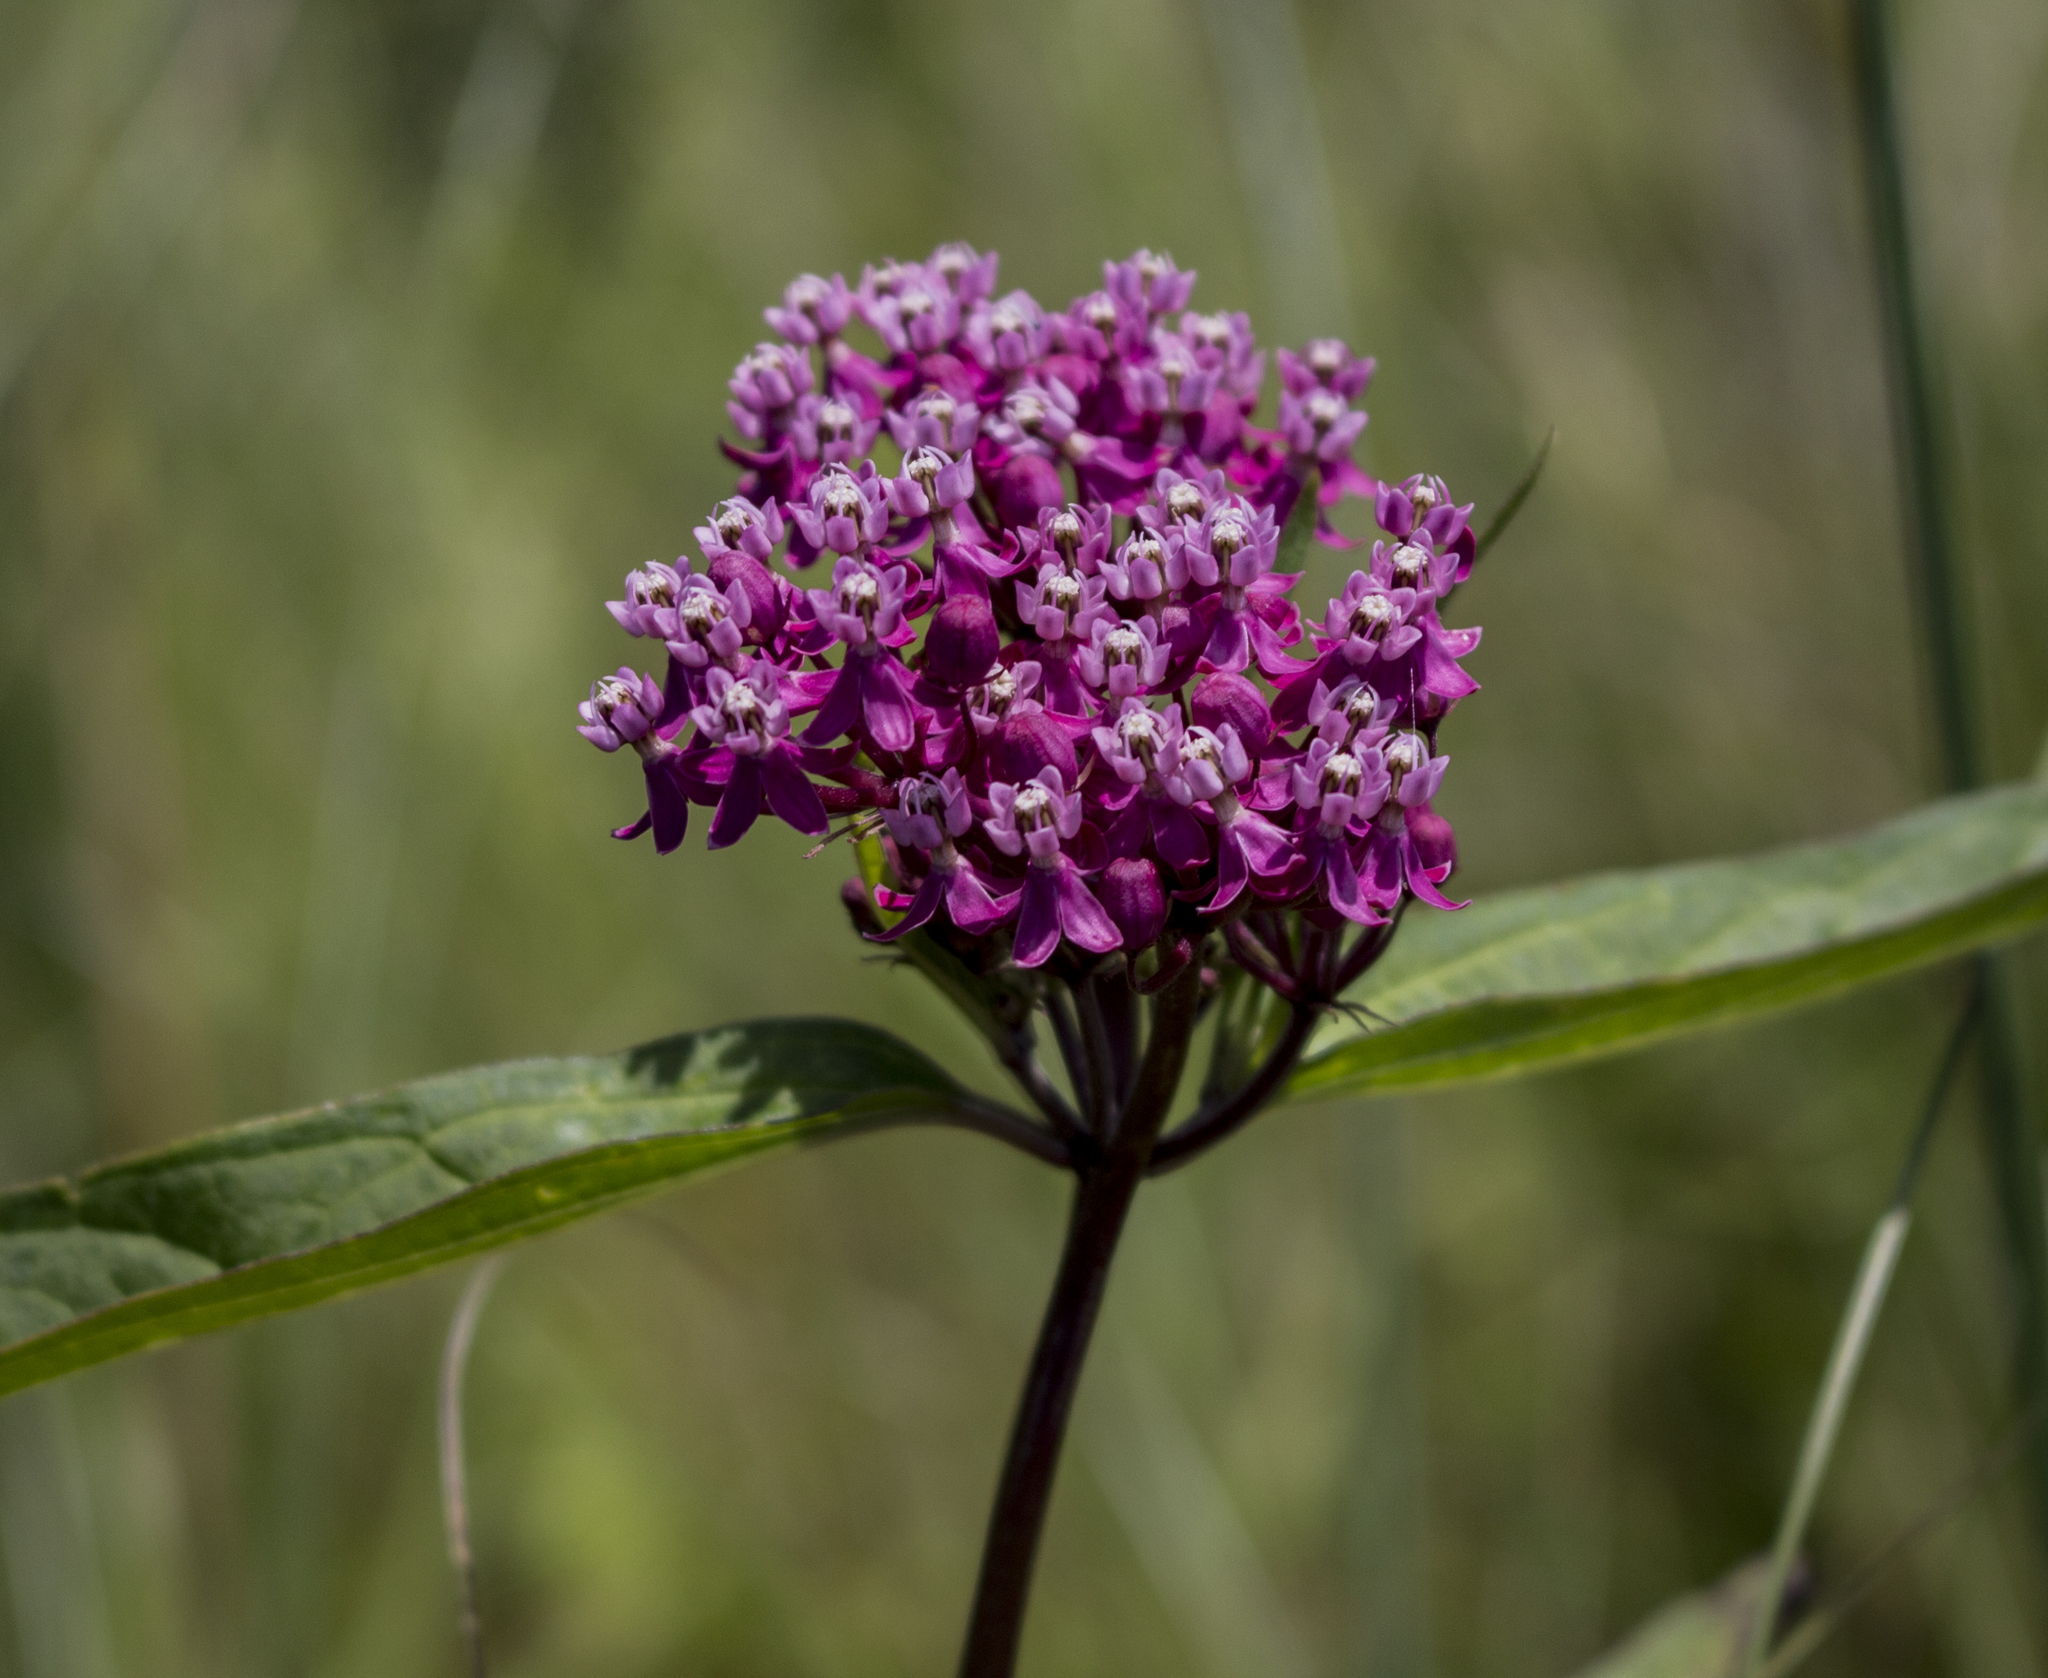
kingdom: Plantae
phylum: Tracheophyta
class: Magnoliopsida
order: Gentianales
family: Apocynaceae
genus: Asclepias
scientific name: Asclepias incarnata
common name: Swamp milkweed
